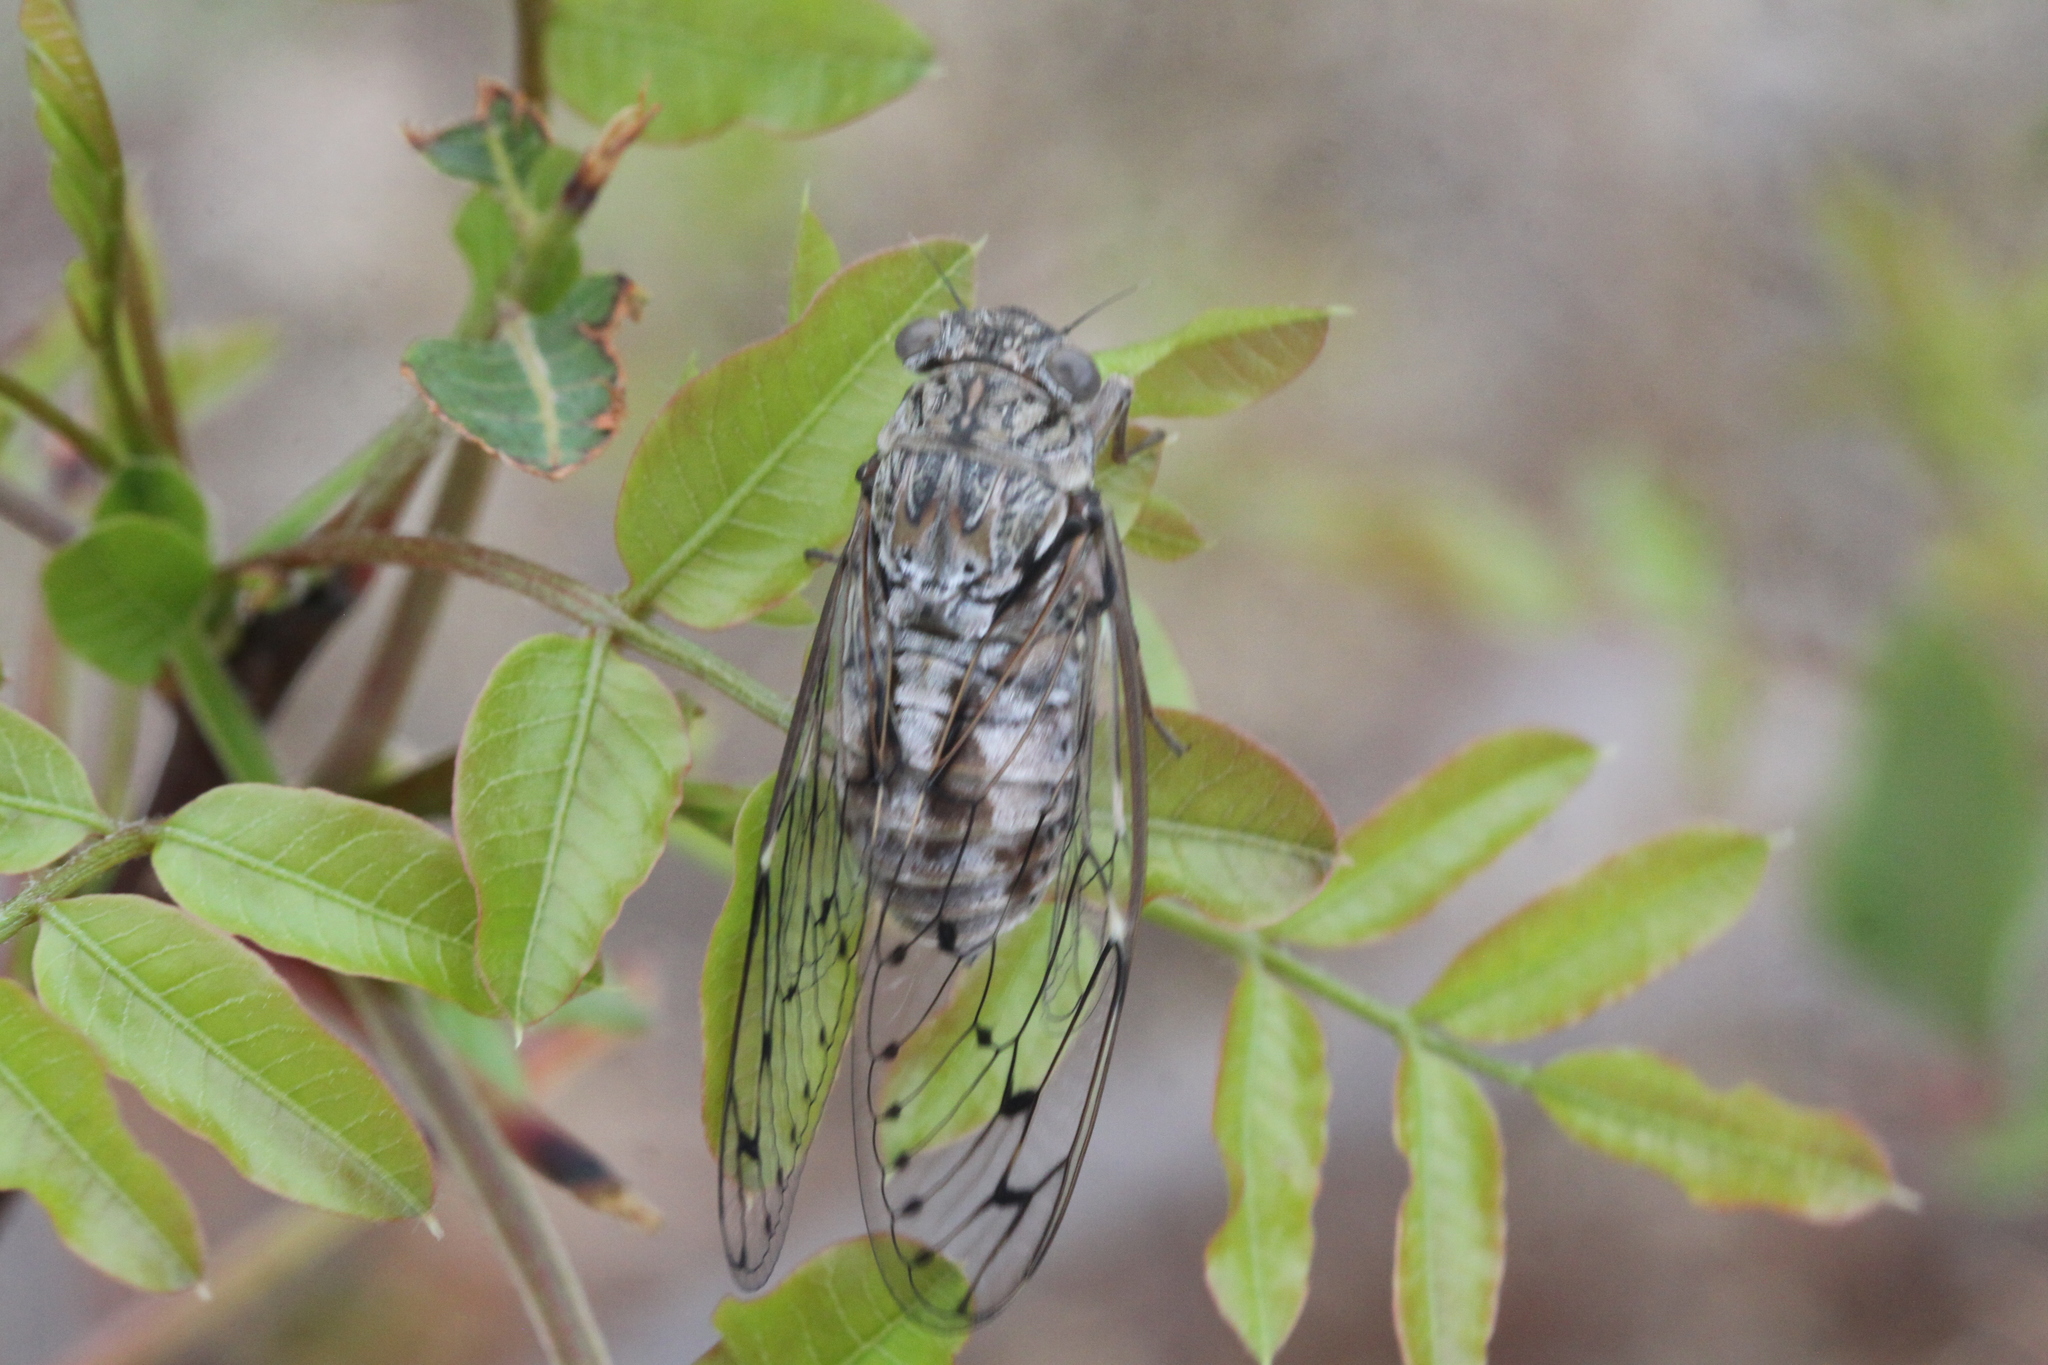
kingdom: Animalia
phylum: Arthropoda
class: Insecta
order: Hemiptera
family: Cicadidae
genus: Cicada
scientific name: Cicada orni
